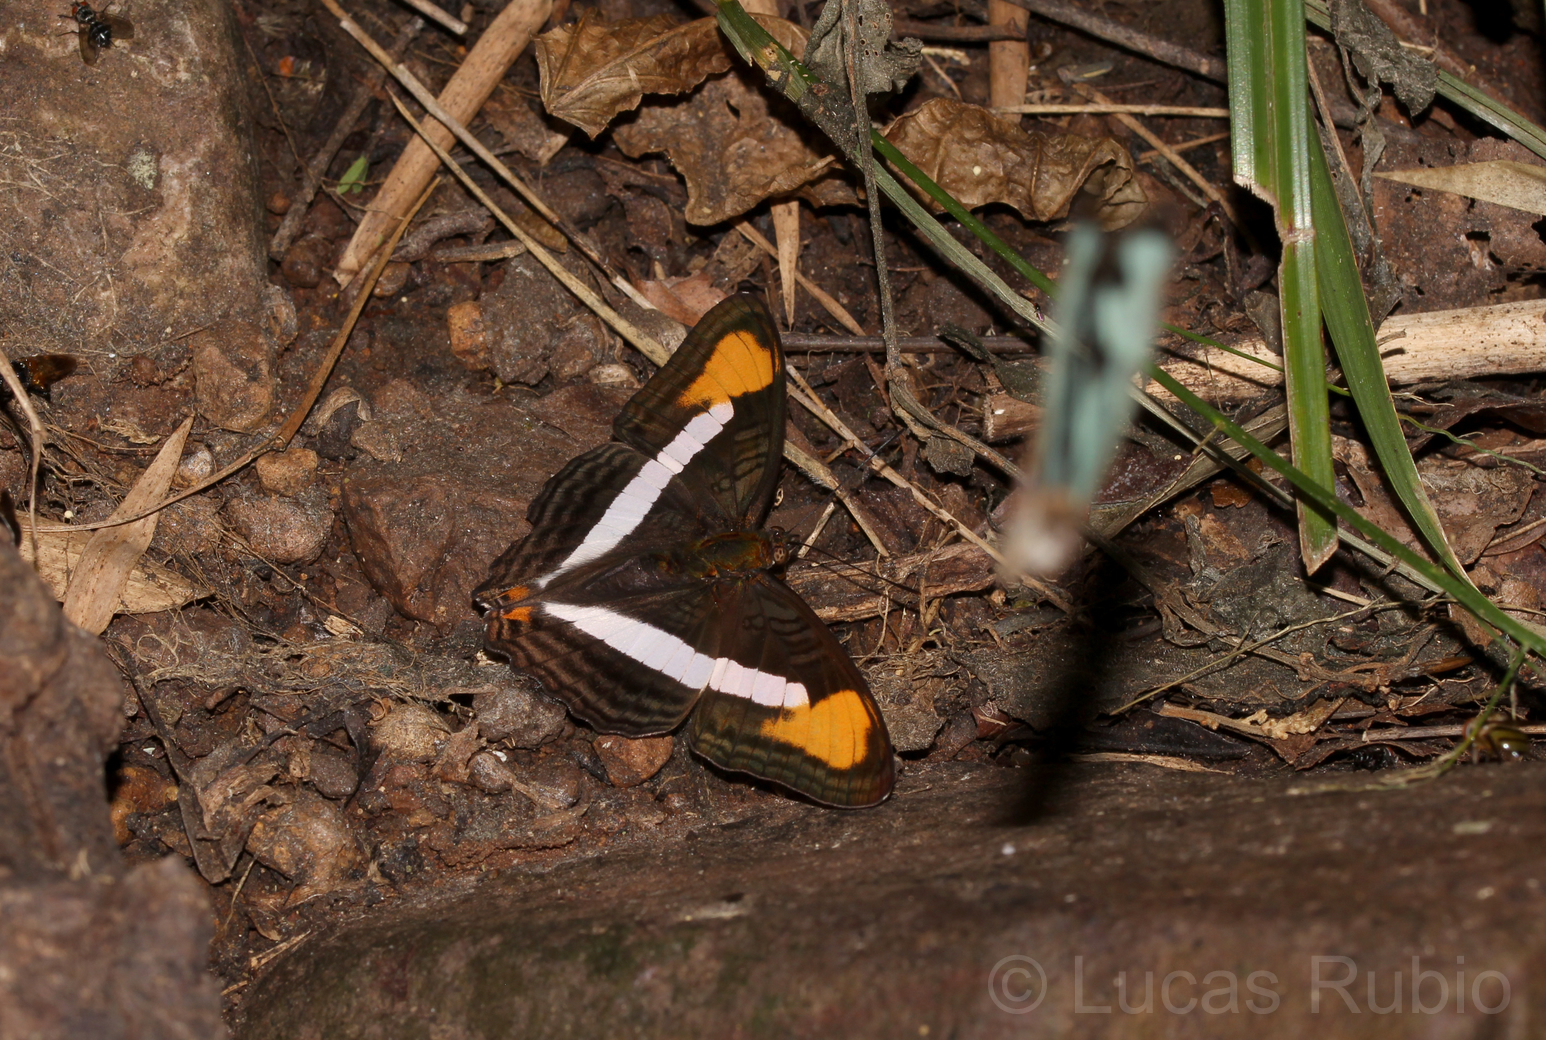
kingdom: Animalia
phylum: Arthropoda
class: Insecta
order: Lepidoptera
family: Nymphalidae
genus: Limenitis
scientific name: Limenitis epizygis
